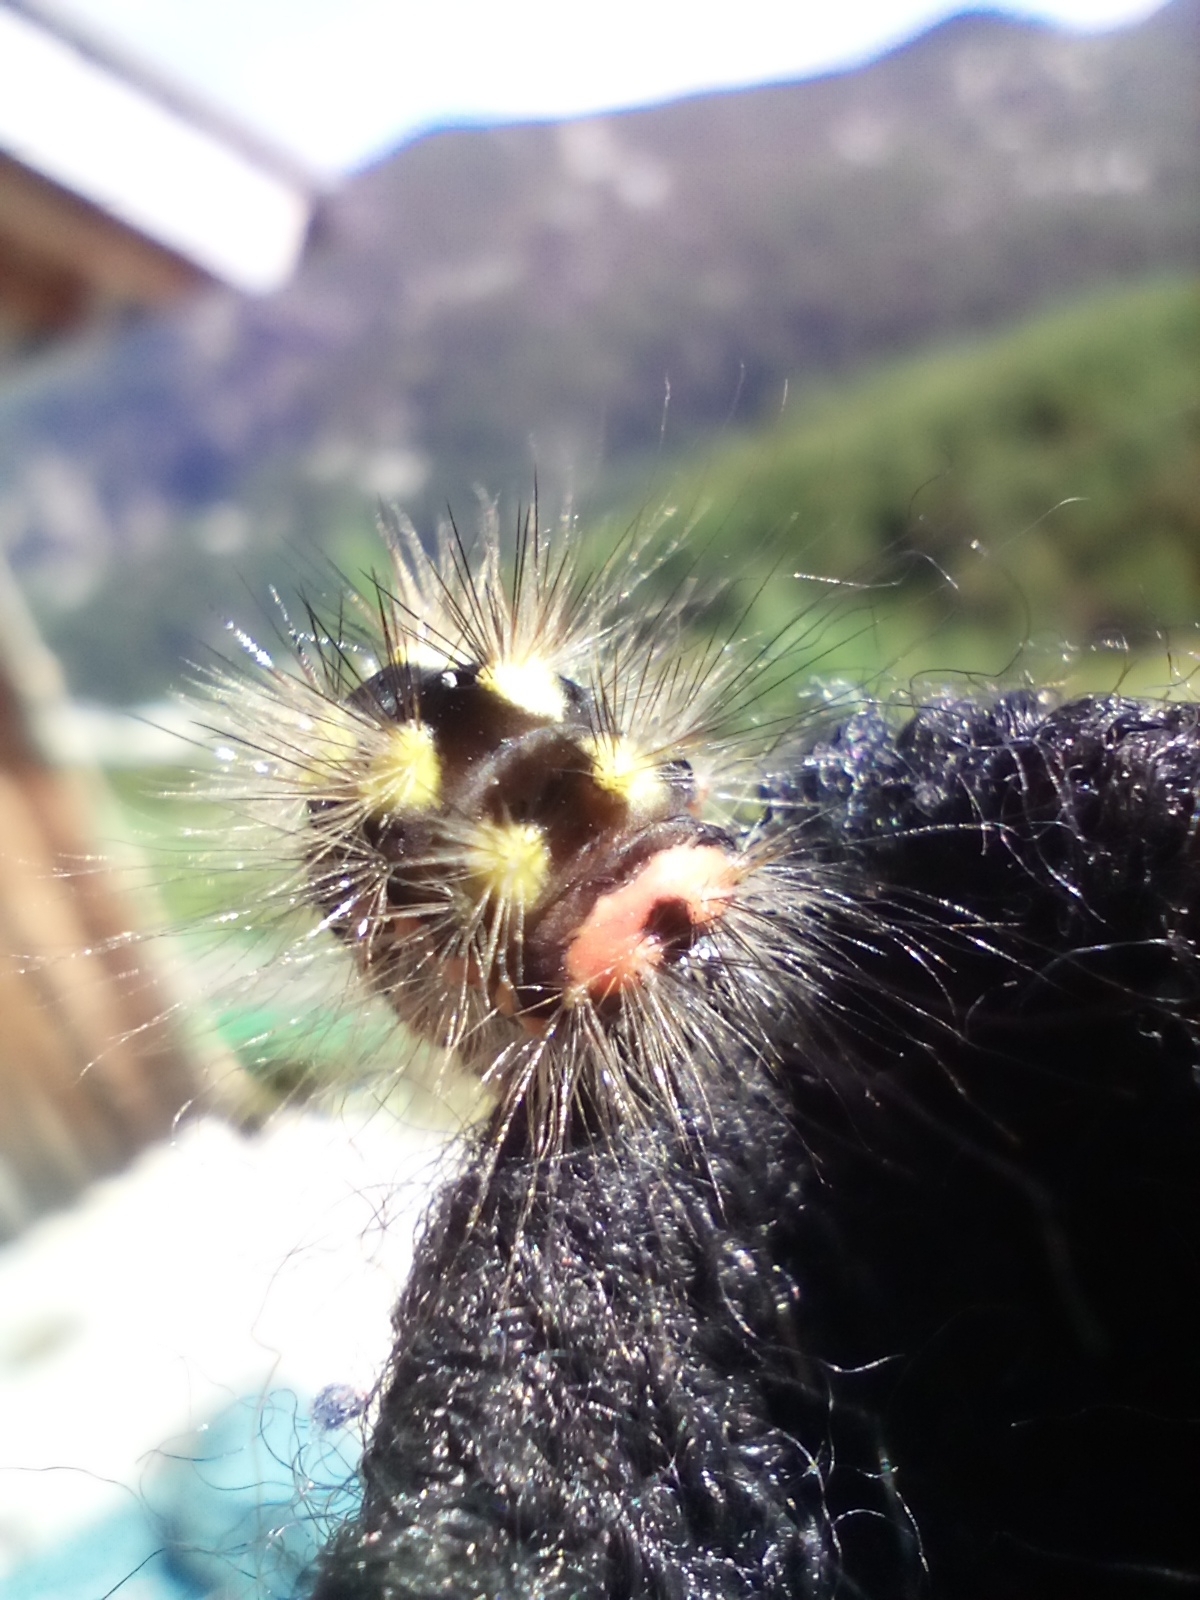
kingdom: Animalia
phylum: Arthropoda
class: Insecta
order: Lepidoptera
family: Noctuidae
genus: Acronicta
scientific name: Acronicta euphorbiae
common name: Sweet gale moth
